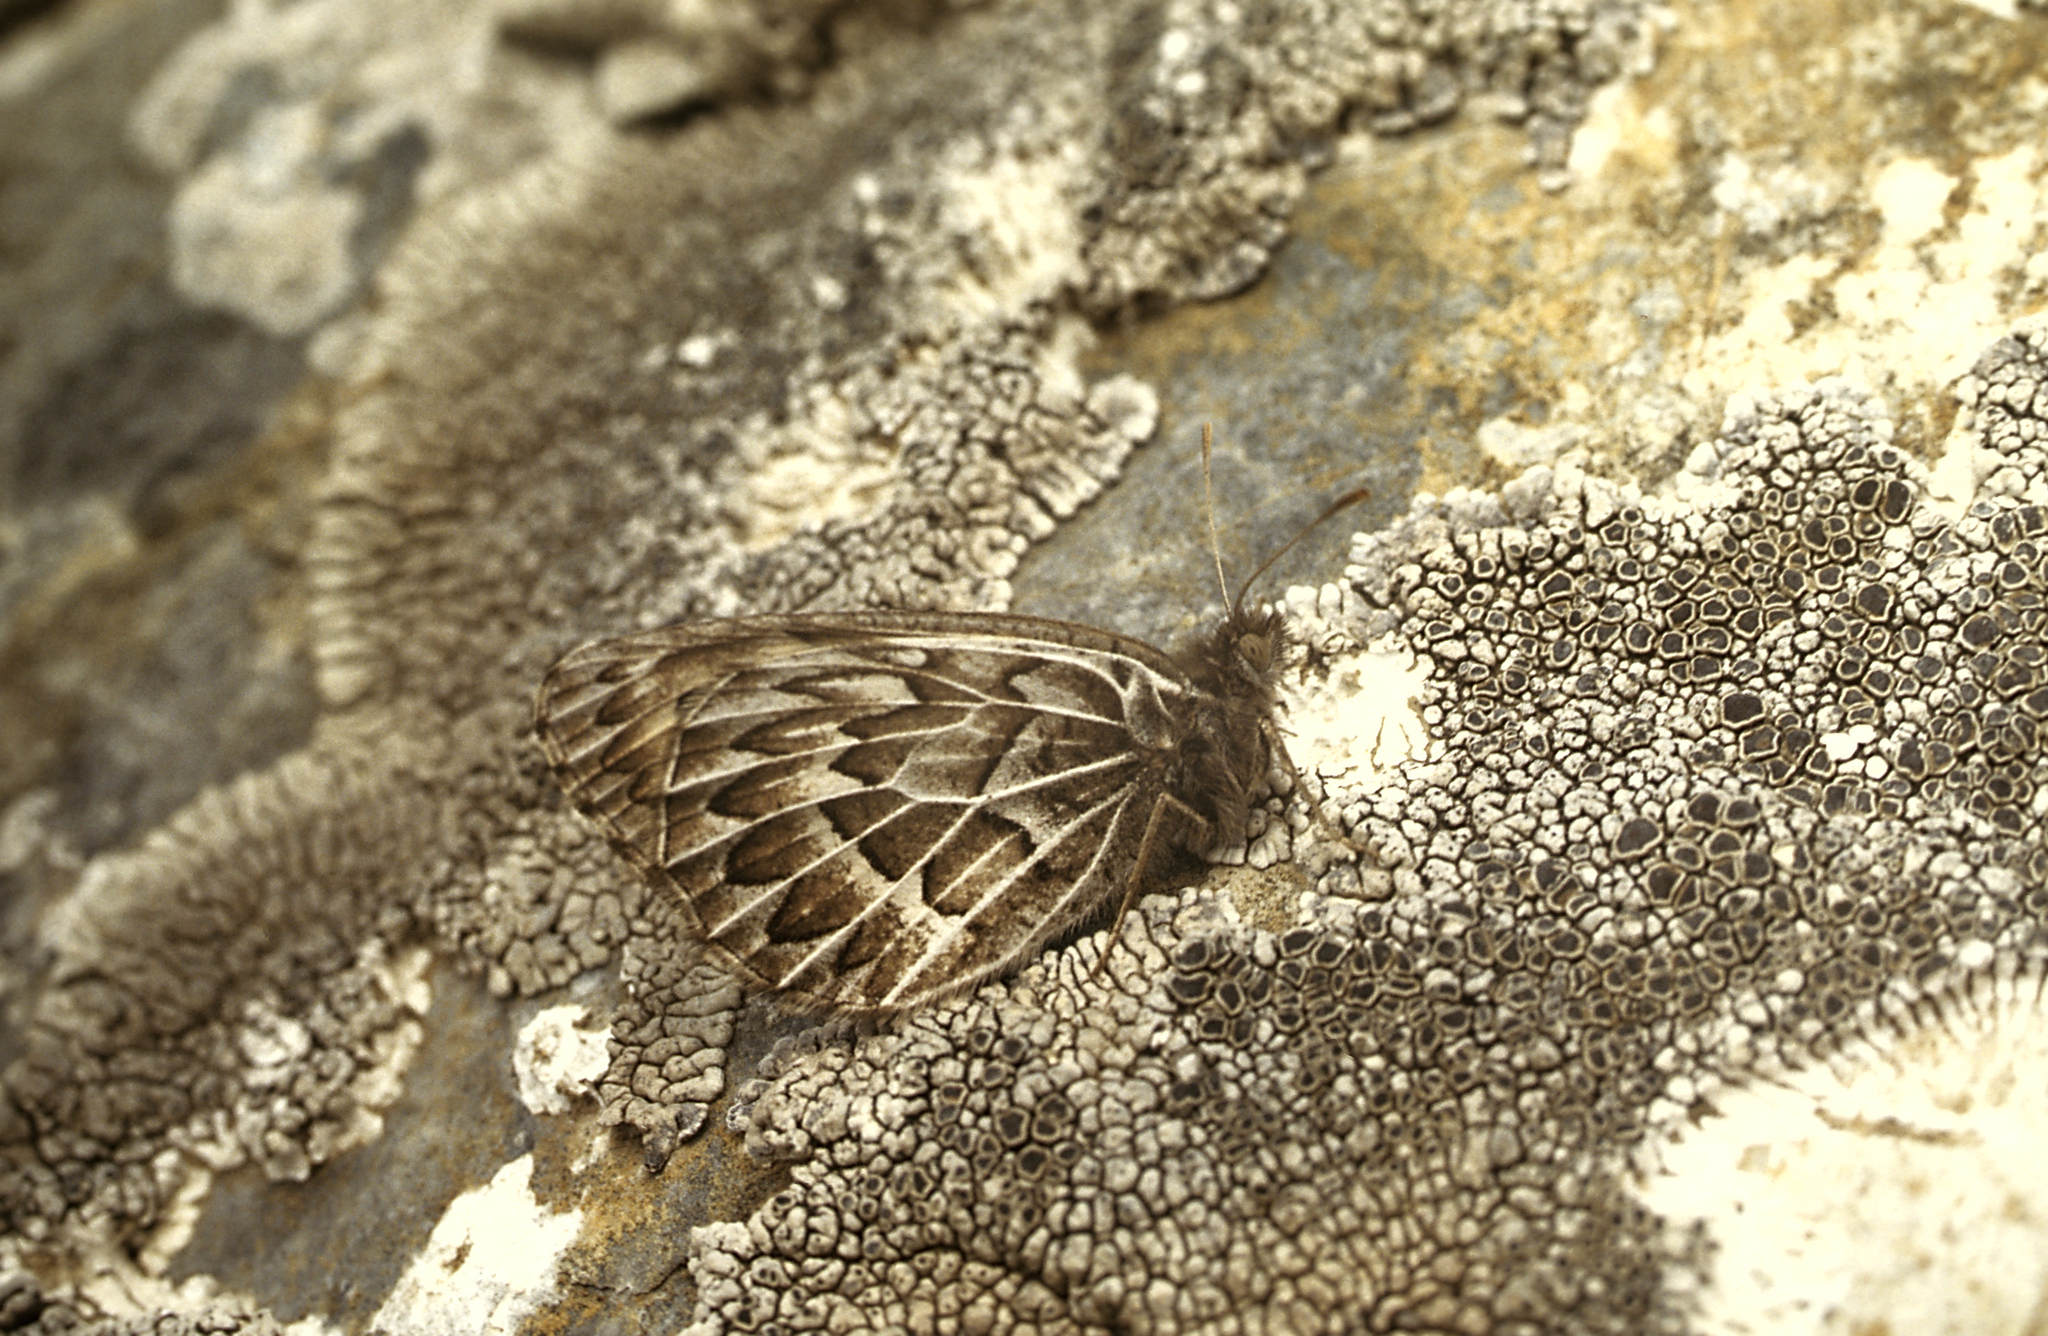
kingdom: Animalia
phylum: Arthropoda
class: Insecta
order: Lepidoptera
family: Nymphalidae
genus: Satyrus
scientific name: Satyrus
